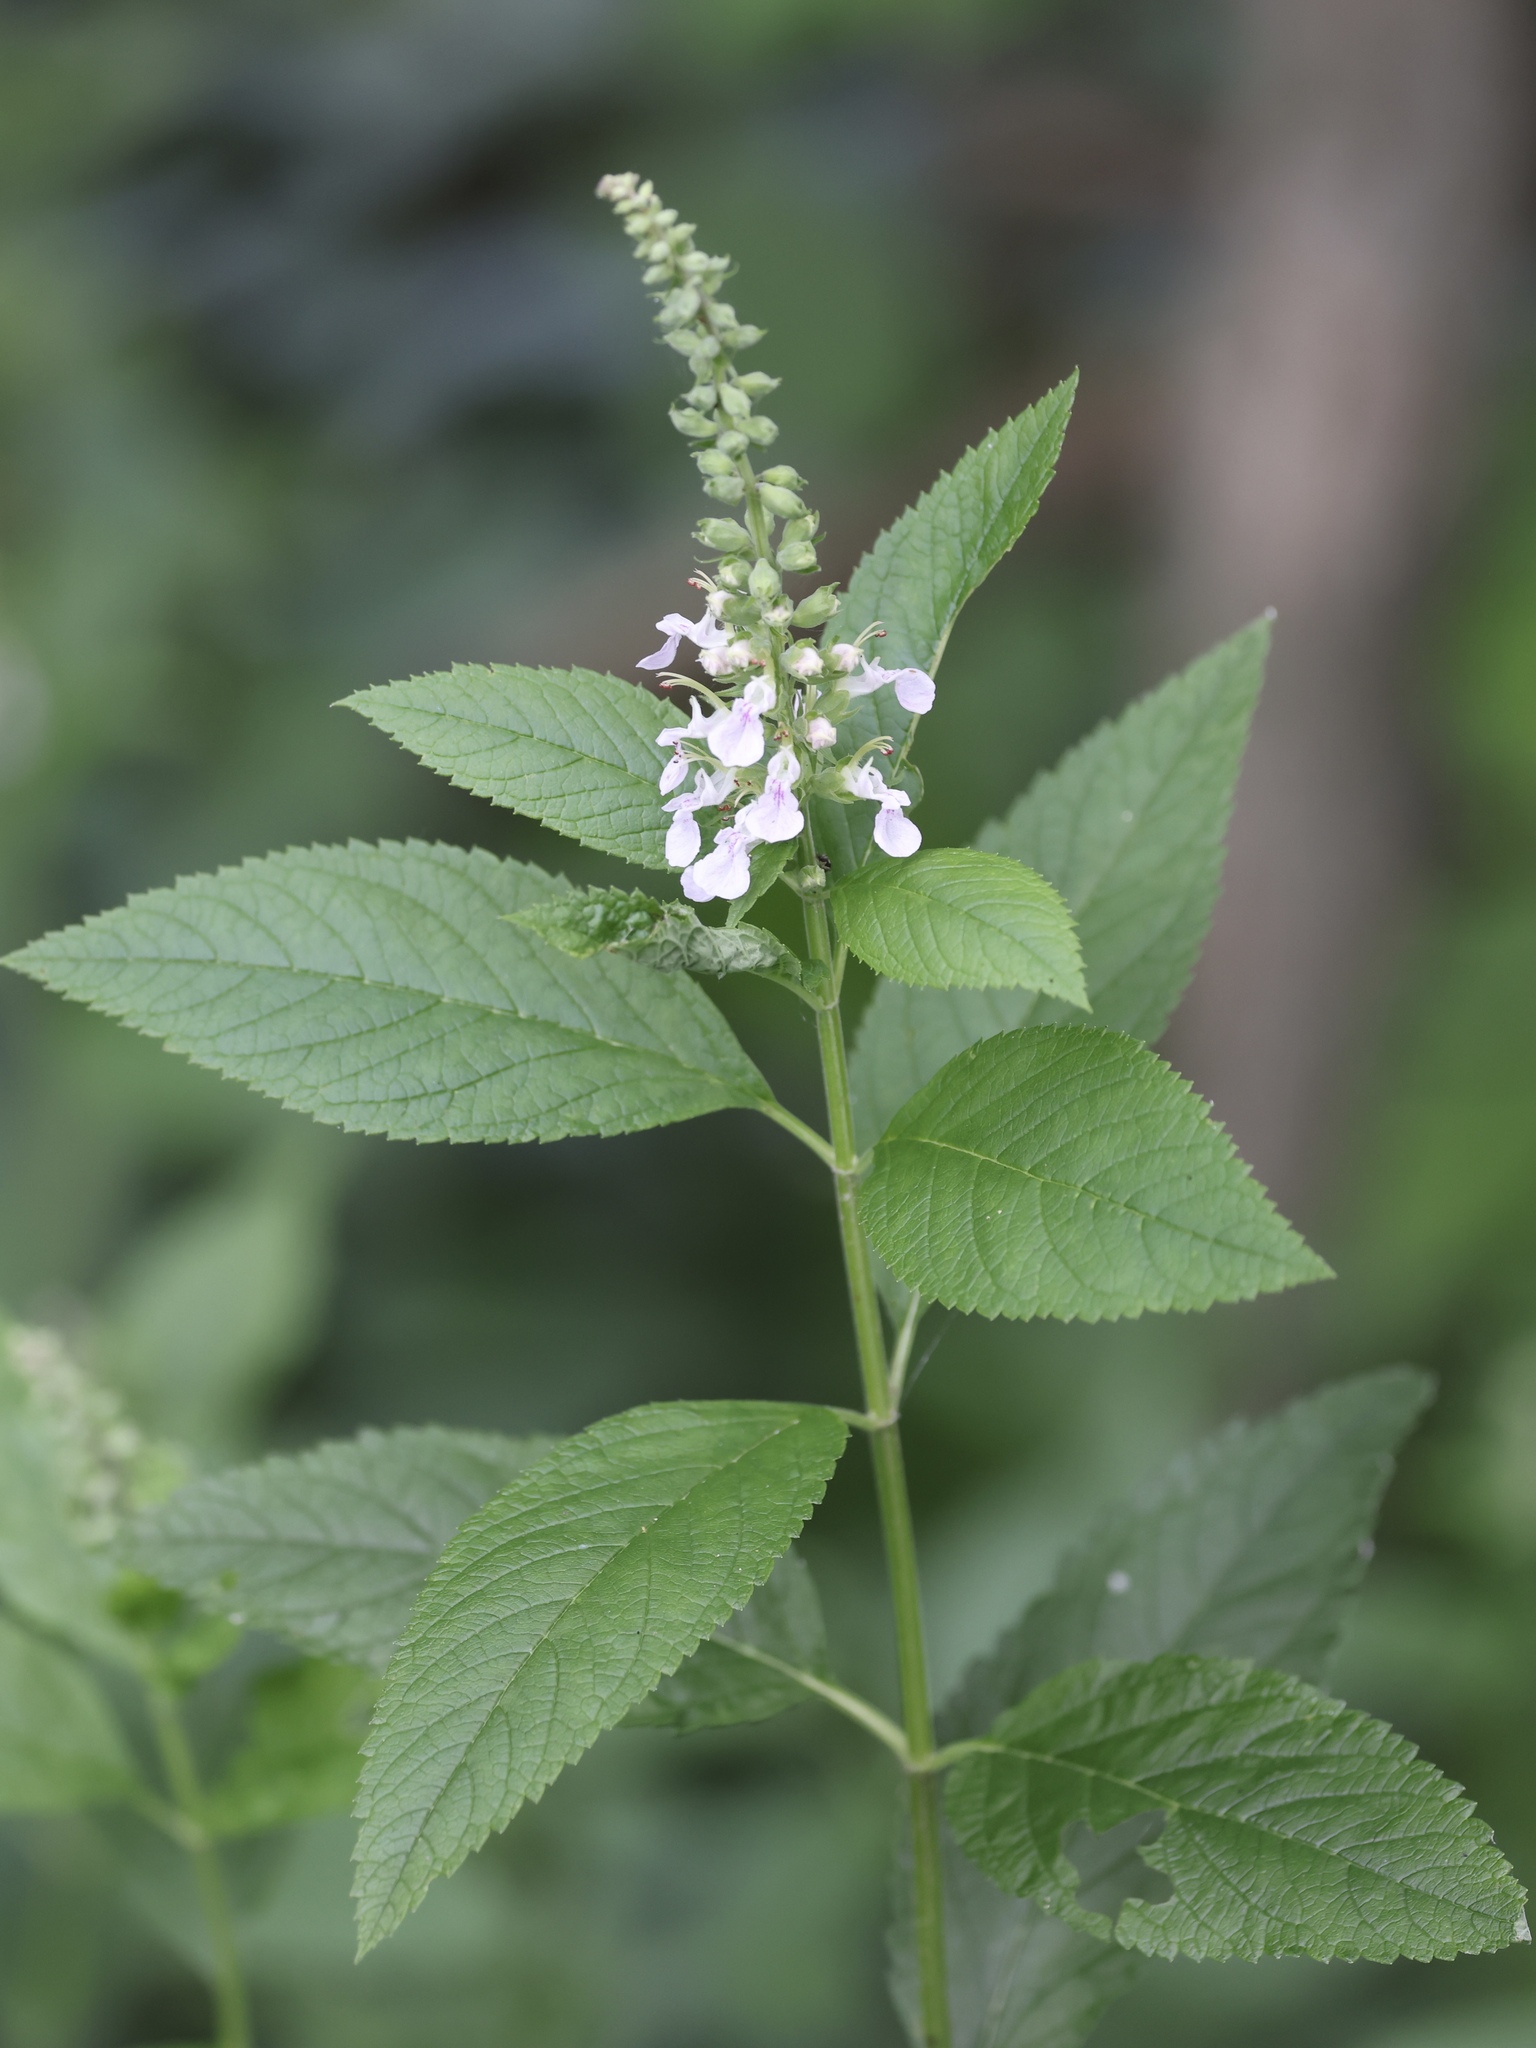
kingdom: Plantae
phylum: Tracheophyta
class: Magnoliopsida
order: Lamiales
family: Lamiaceae
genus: Teucrium
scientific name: Teucrium canadense
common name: American germander
